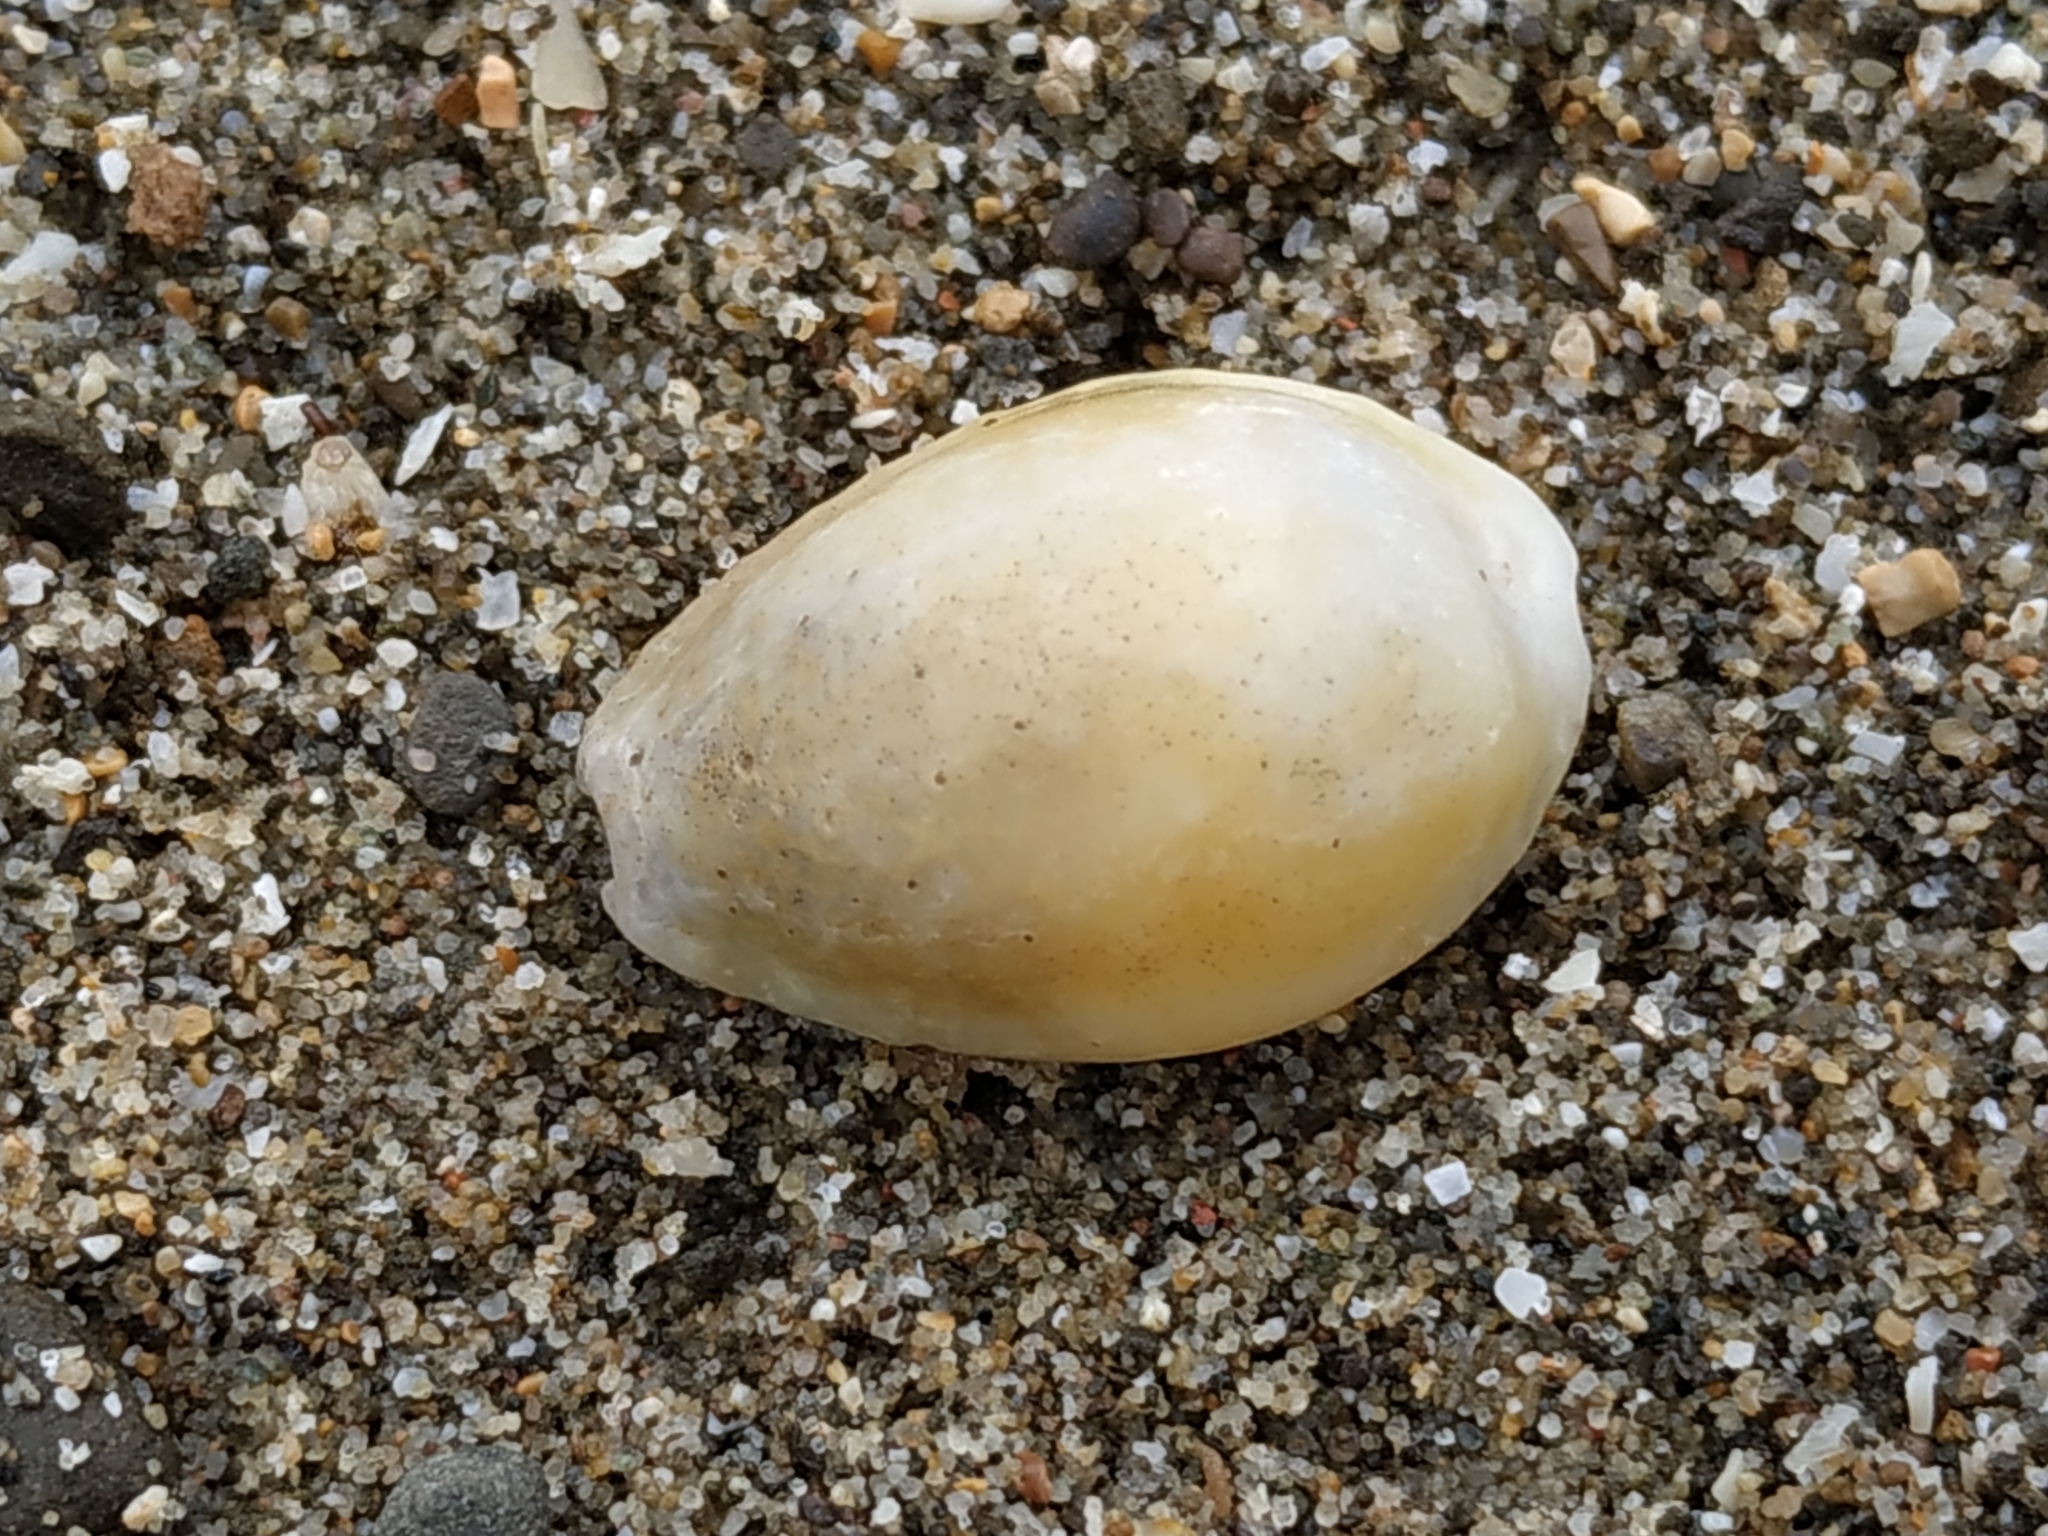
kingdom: Animalia
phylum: Mollusca
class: Gastropoda
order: Littorinimorpha
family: Cypraeidae
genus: Naria
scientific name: Naria helvola
